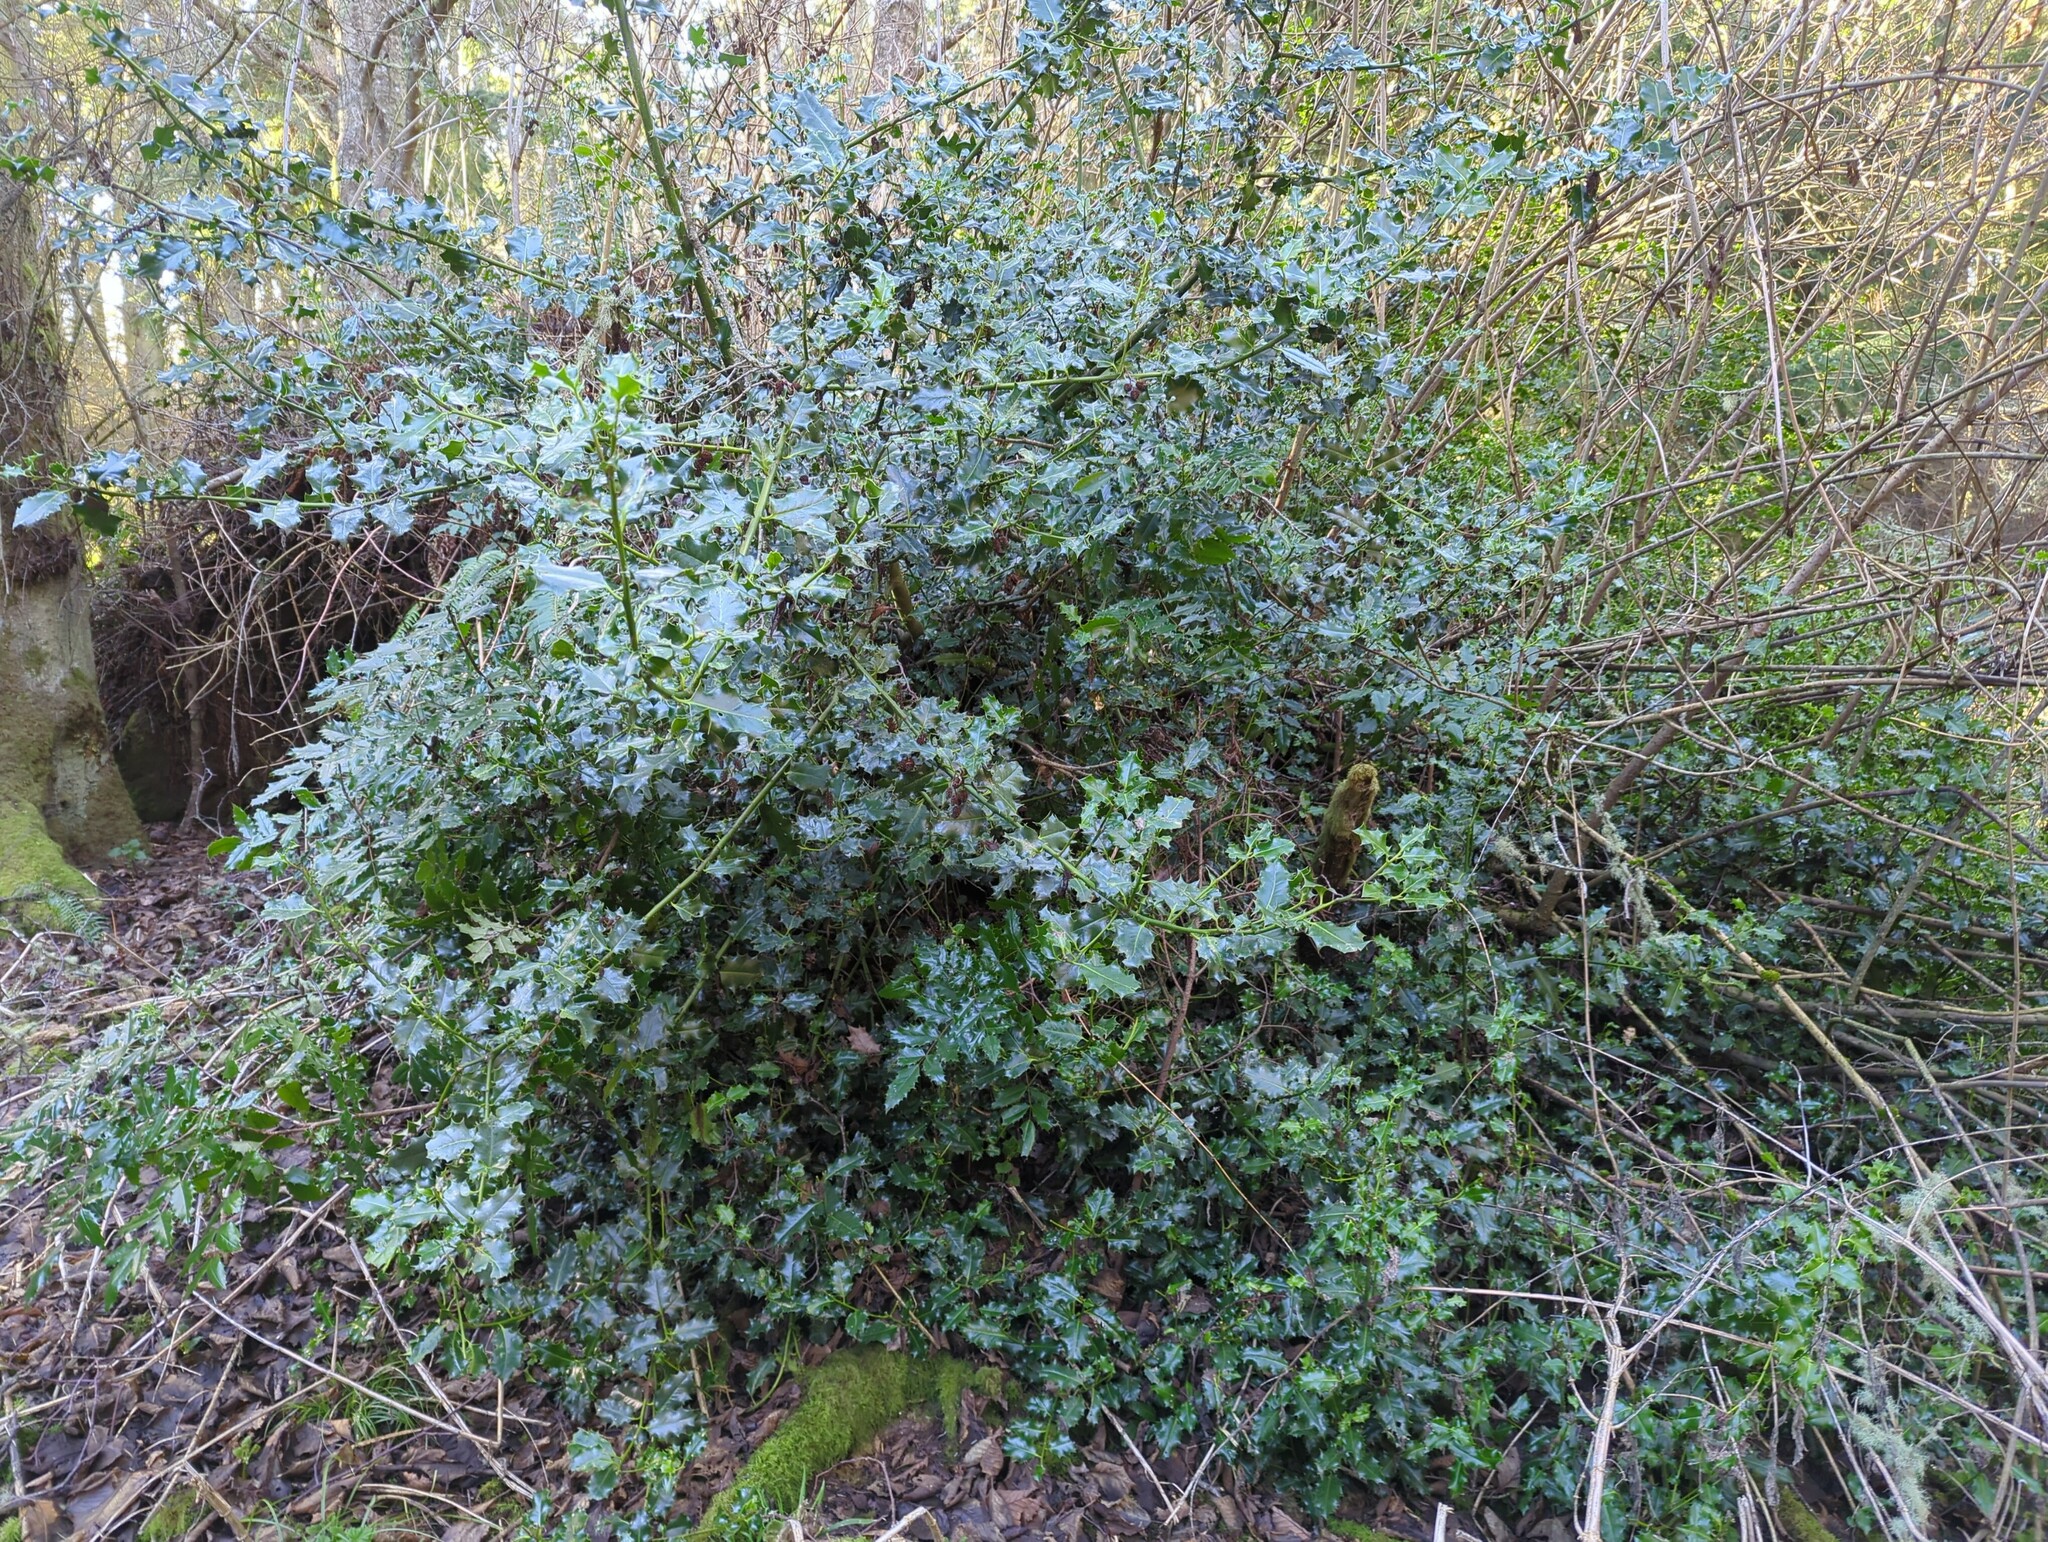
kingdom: Plantae
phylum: Tracheophyta
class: Magnoliopsida
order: Aquifoliales
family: Aquifoliaceae
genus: Ilex
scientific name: Ilex aquifolium
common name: English holly
